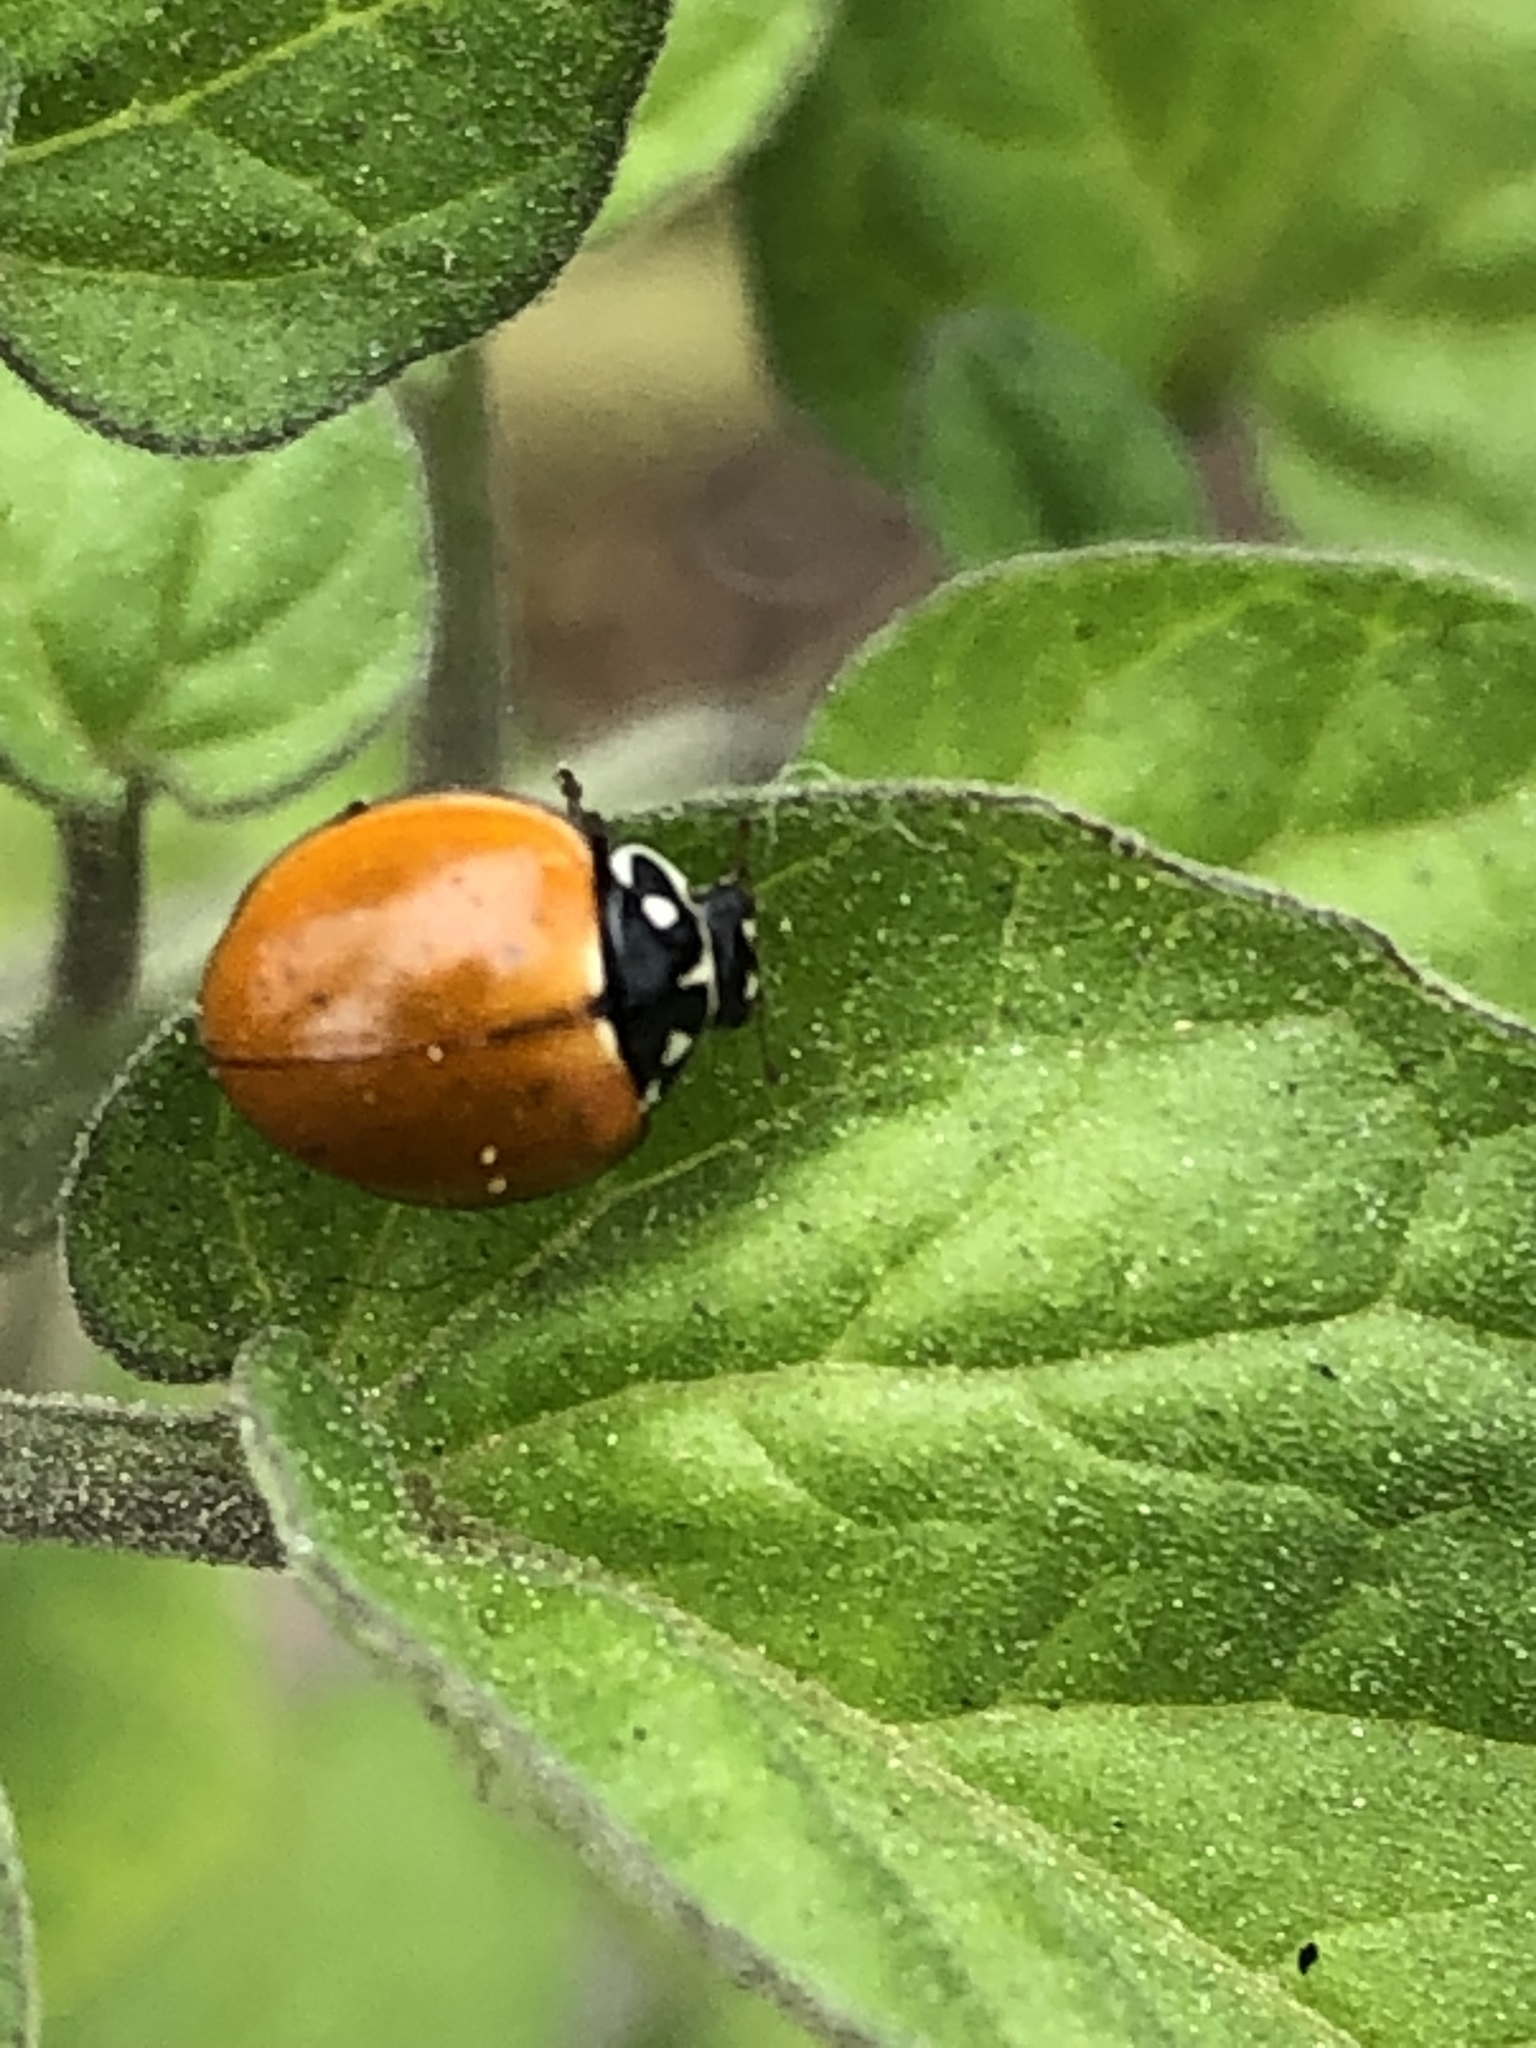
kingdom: Animalia
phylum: Arthropoda
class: Insecta
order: Coleoptera
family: Coccinellidae
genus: Cycloneda
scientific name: Cycloneda sanguinea
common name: Ladybird beetle
